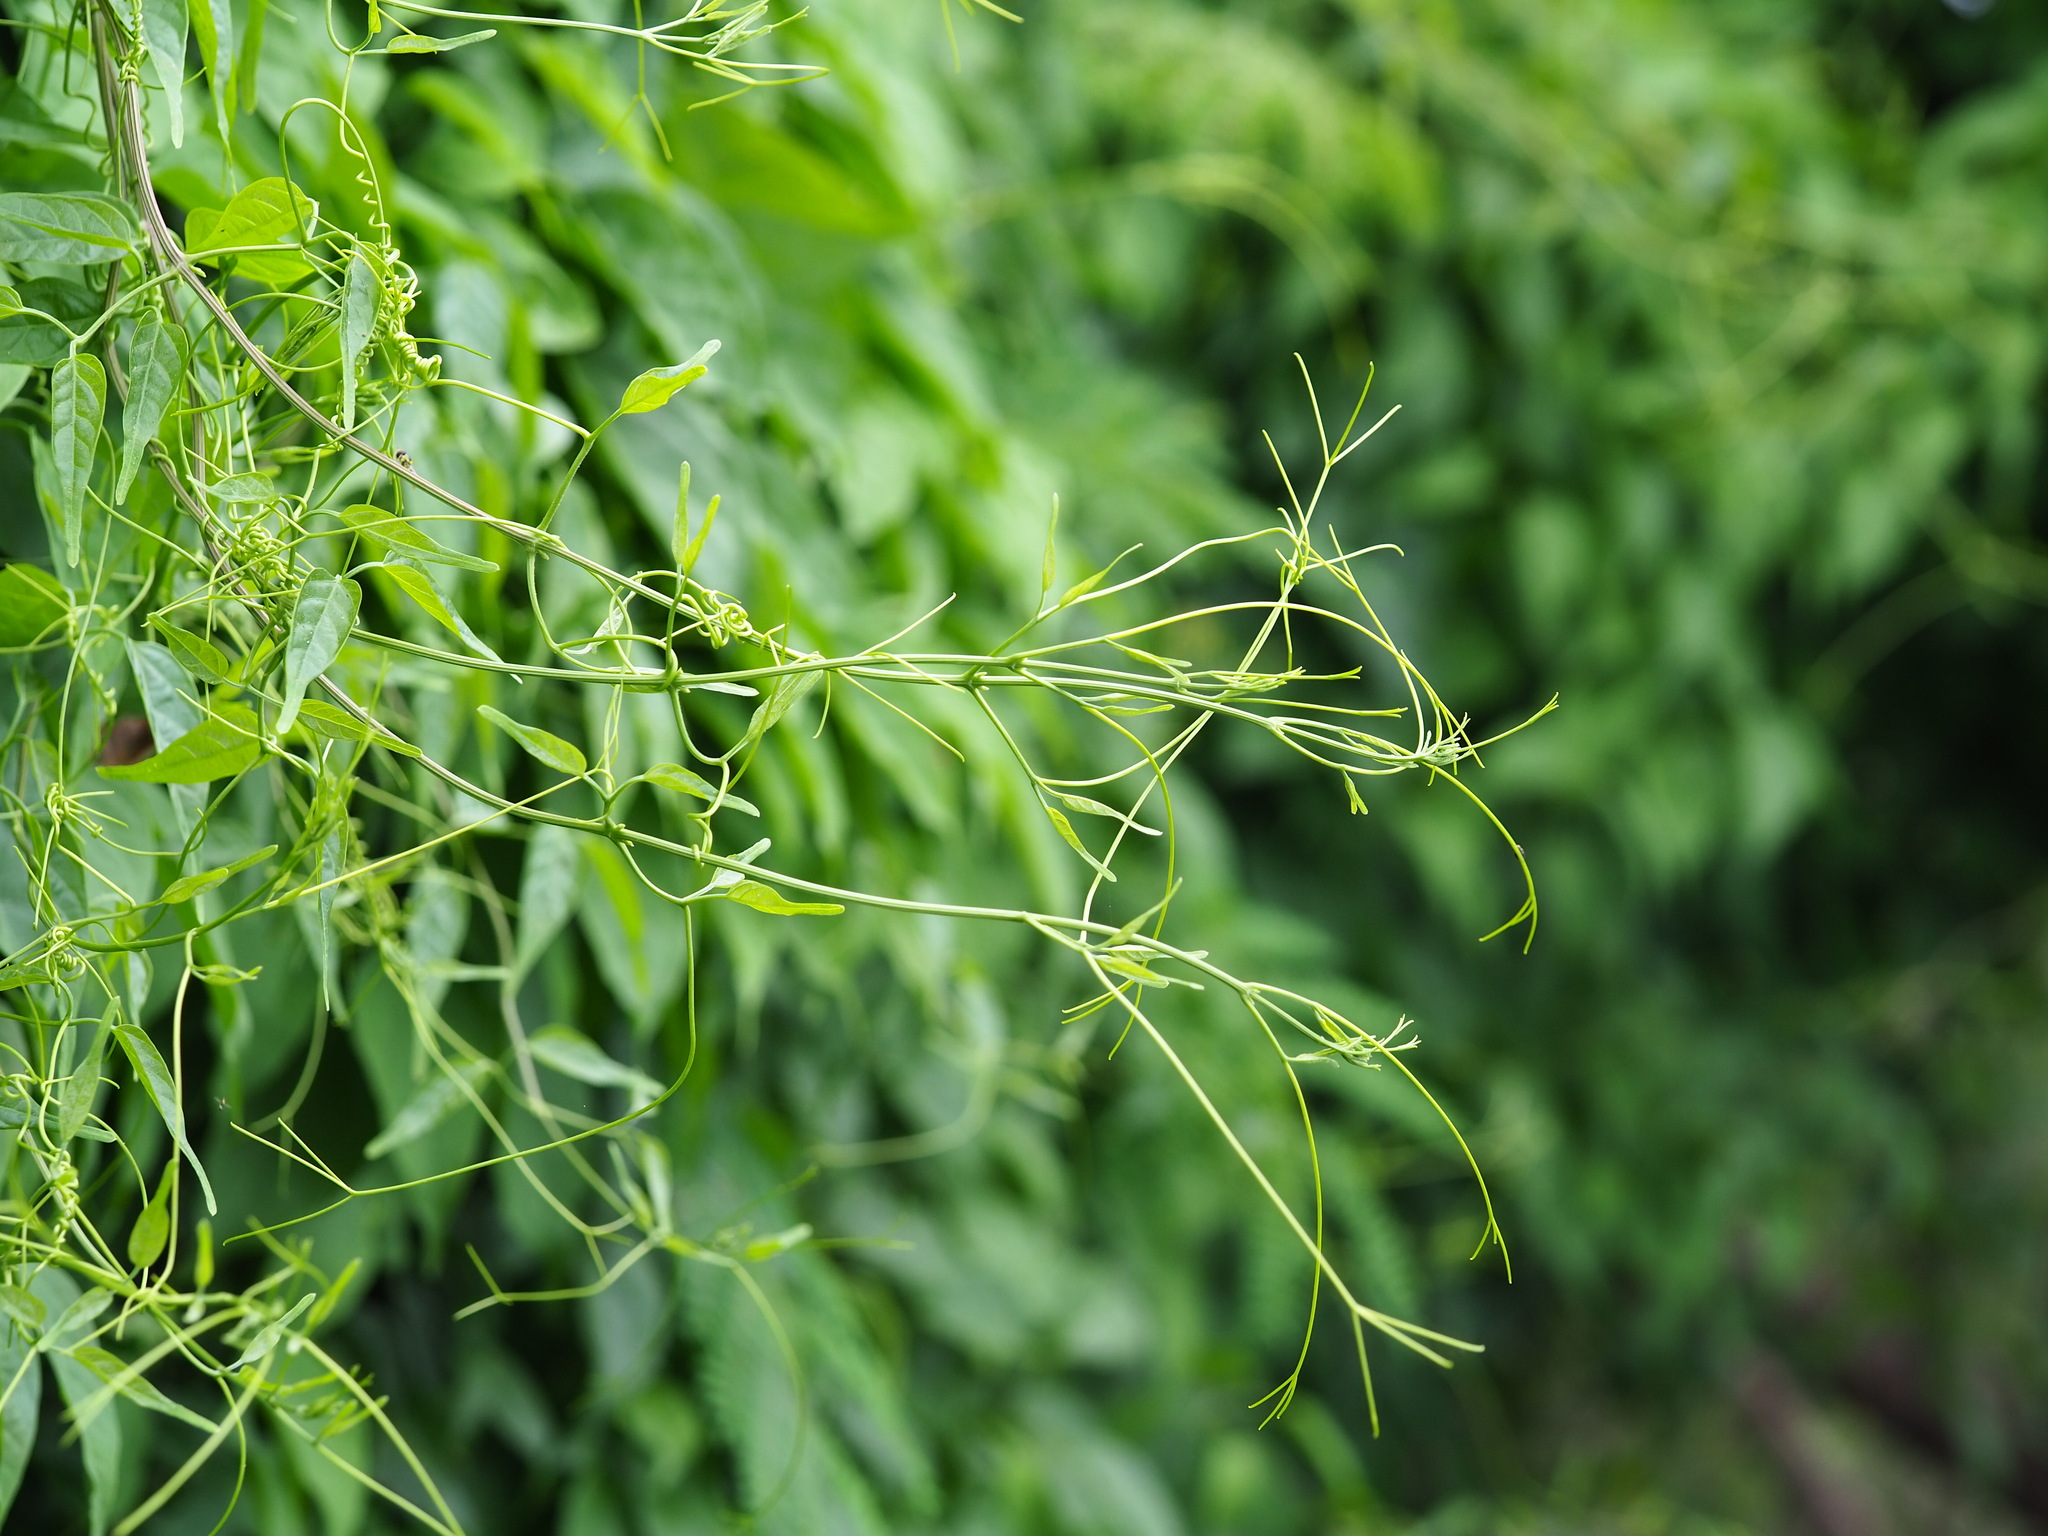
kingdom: Plantae
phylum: Tracheophyta
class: Magnoliopsida
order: Lamiales
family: Bignoniaceae
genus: Pyrostegia
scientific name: Pyrostegia venusta
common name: Flamevine
